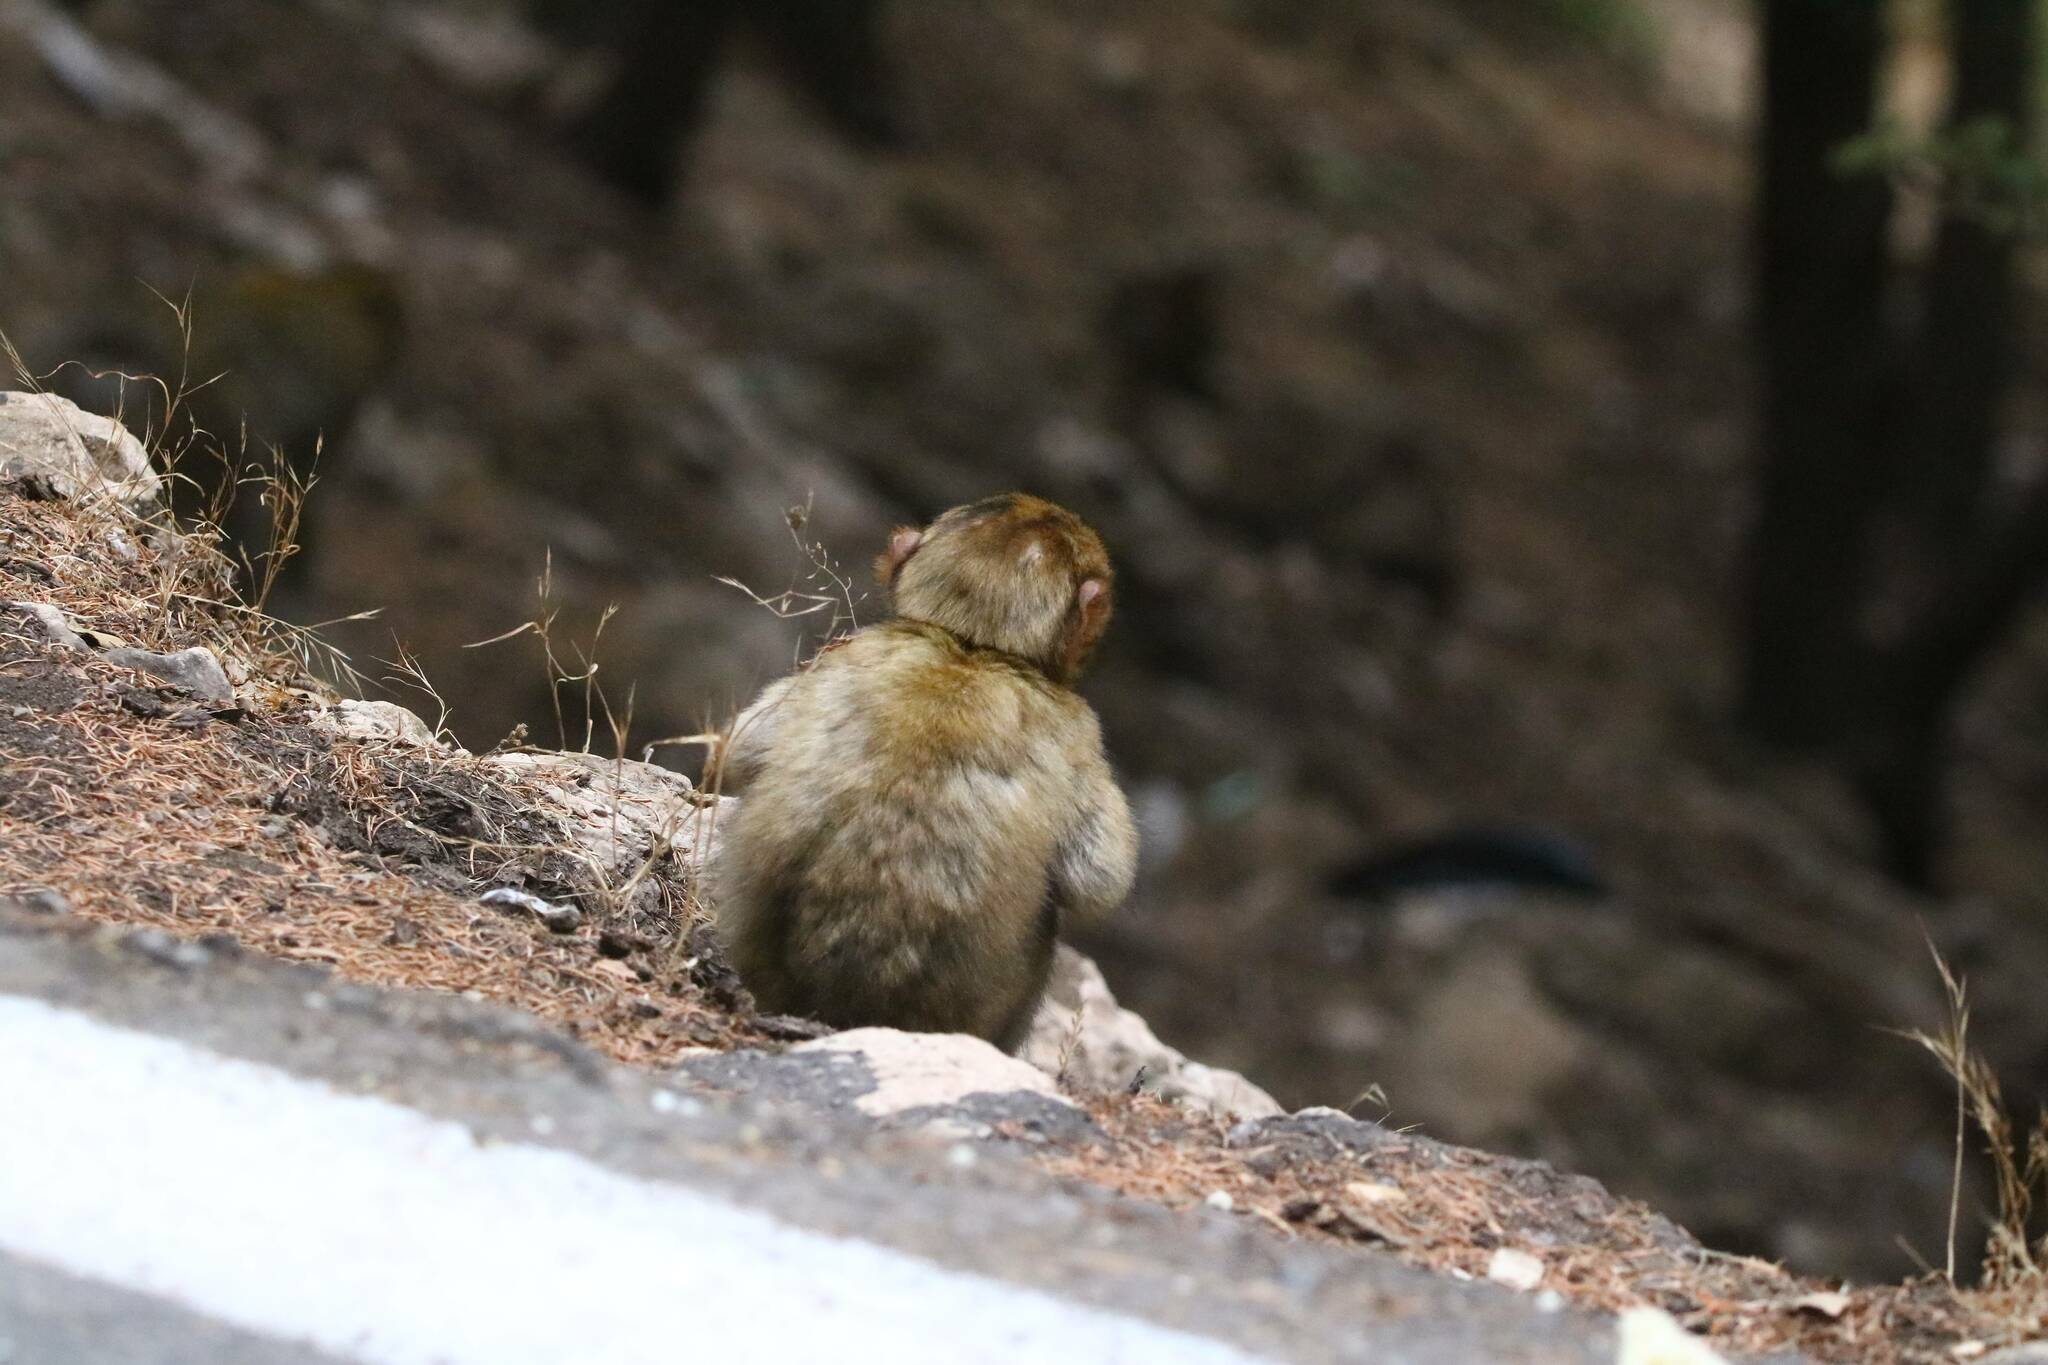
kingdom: Animalia
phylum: Chordata
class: Mammalia
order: Primates
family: Cercopithecidae
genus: Macaca
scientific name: Macaca sylvanus
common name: Barbary macaque
